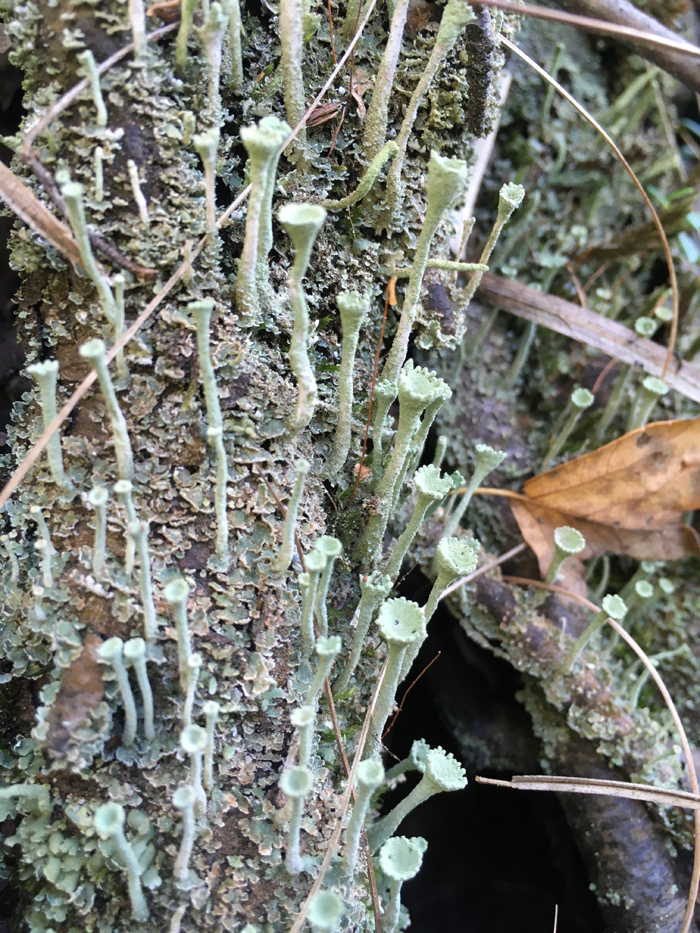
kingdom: Fungi
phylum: Ascomycota
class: Lecanoromycetes
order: Lecanorales
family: Cladoniaceae
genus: Cladonia
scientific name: Cladonia fimbriata
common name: Powdered trumpet lichen
